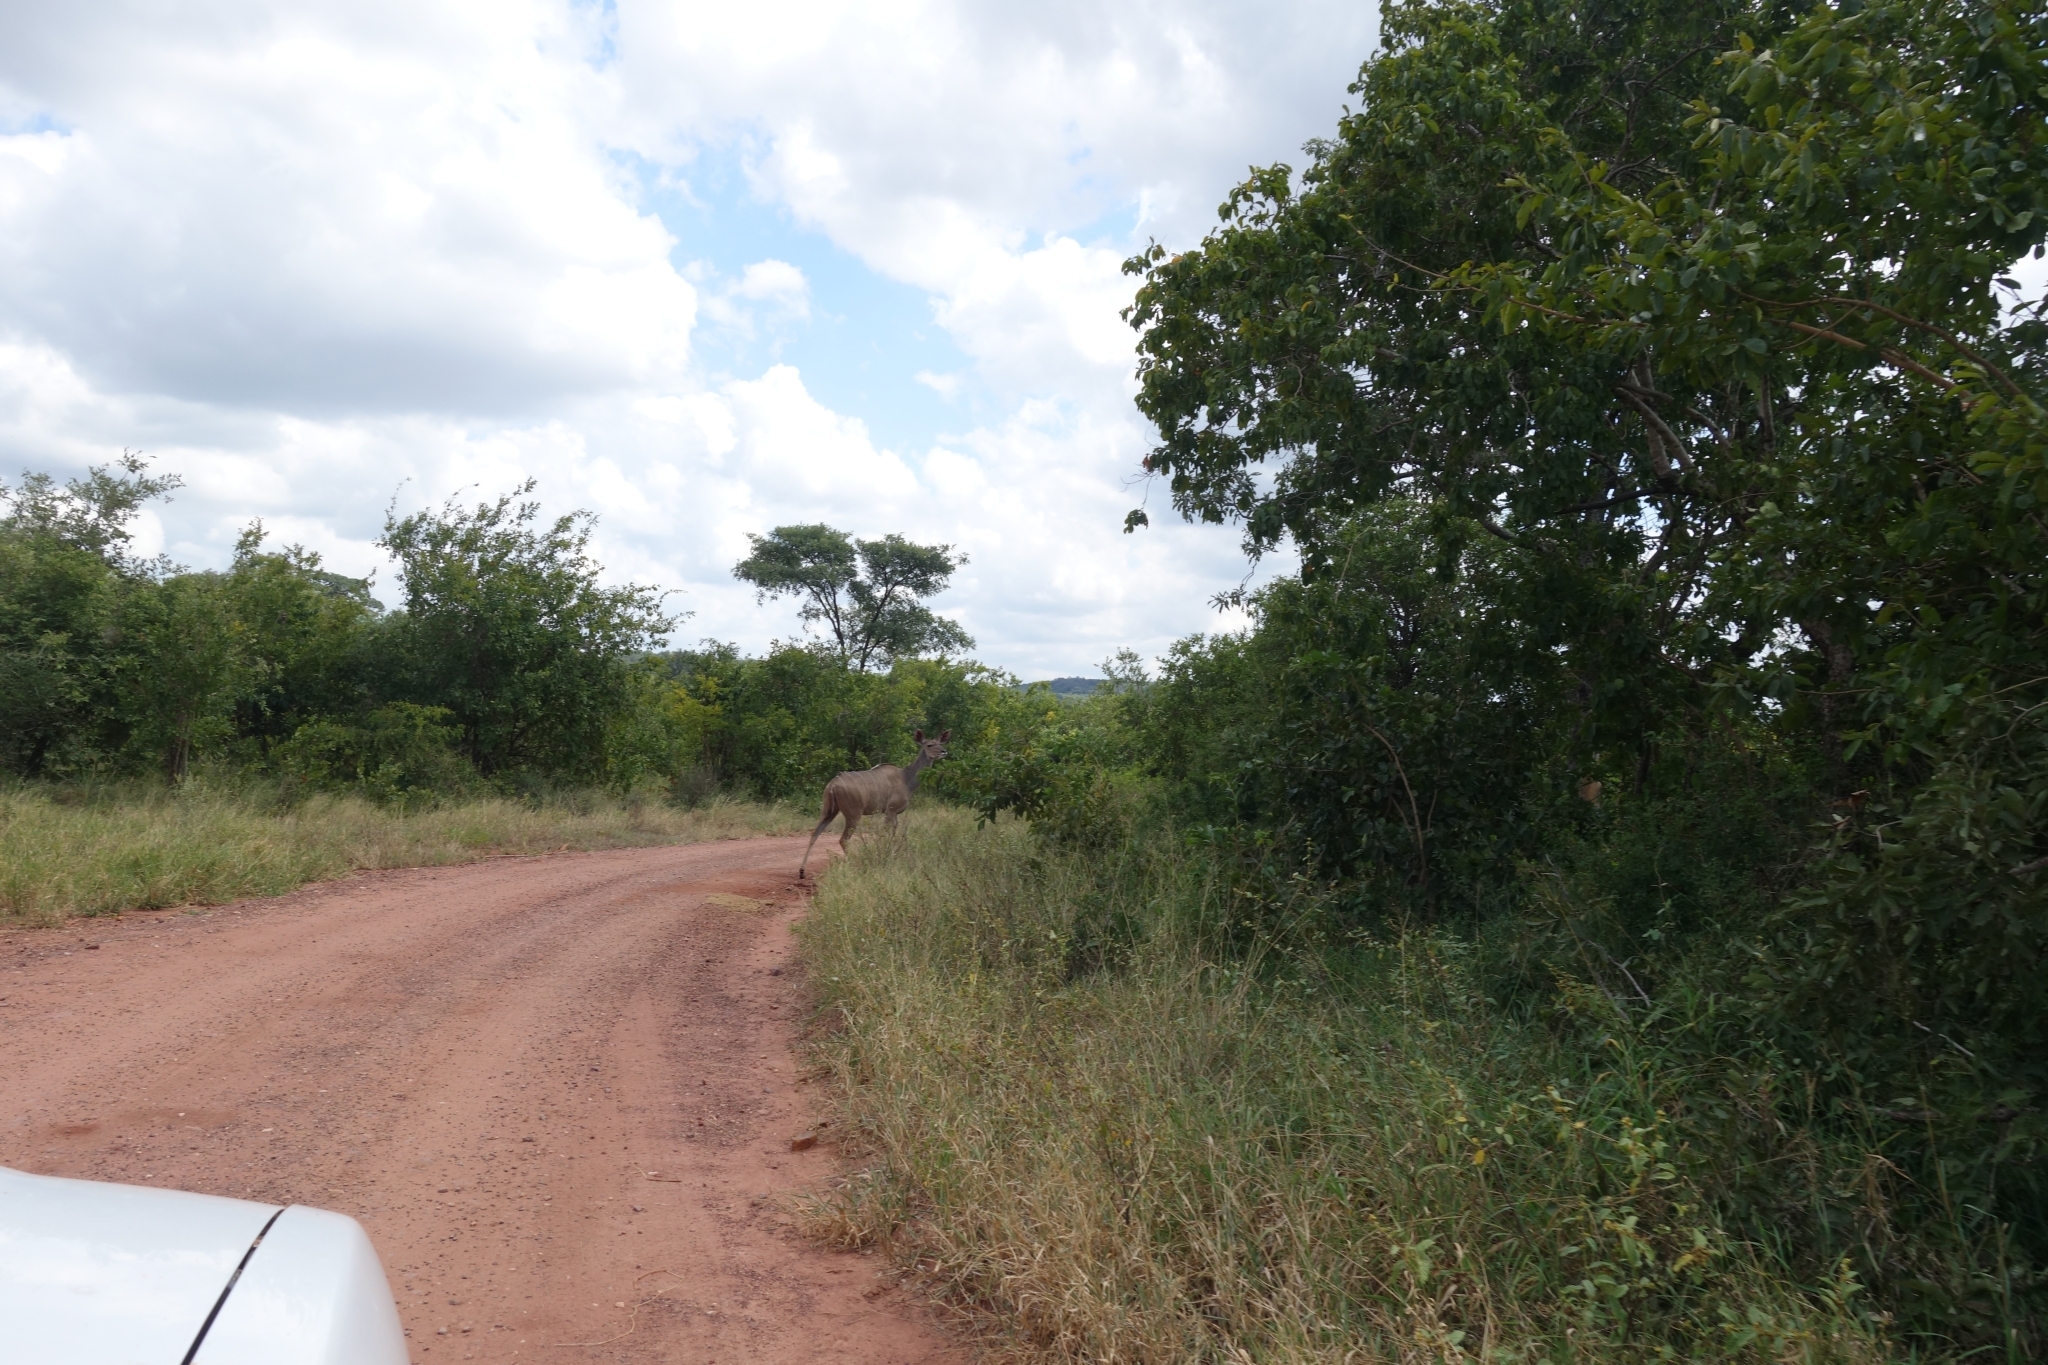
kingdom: Animalia
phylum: Chordata
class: Mammalia
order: Artiodactyla
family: Bovidae
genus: Tragelaphus
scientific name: Tragelaphus strepsiceros
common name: Greater kudu
